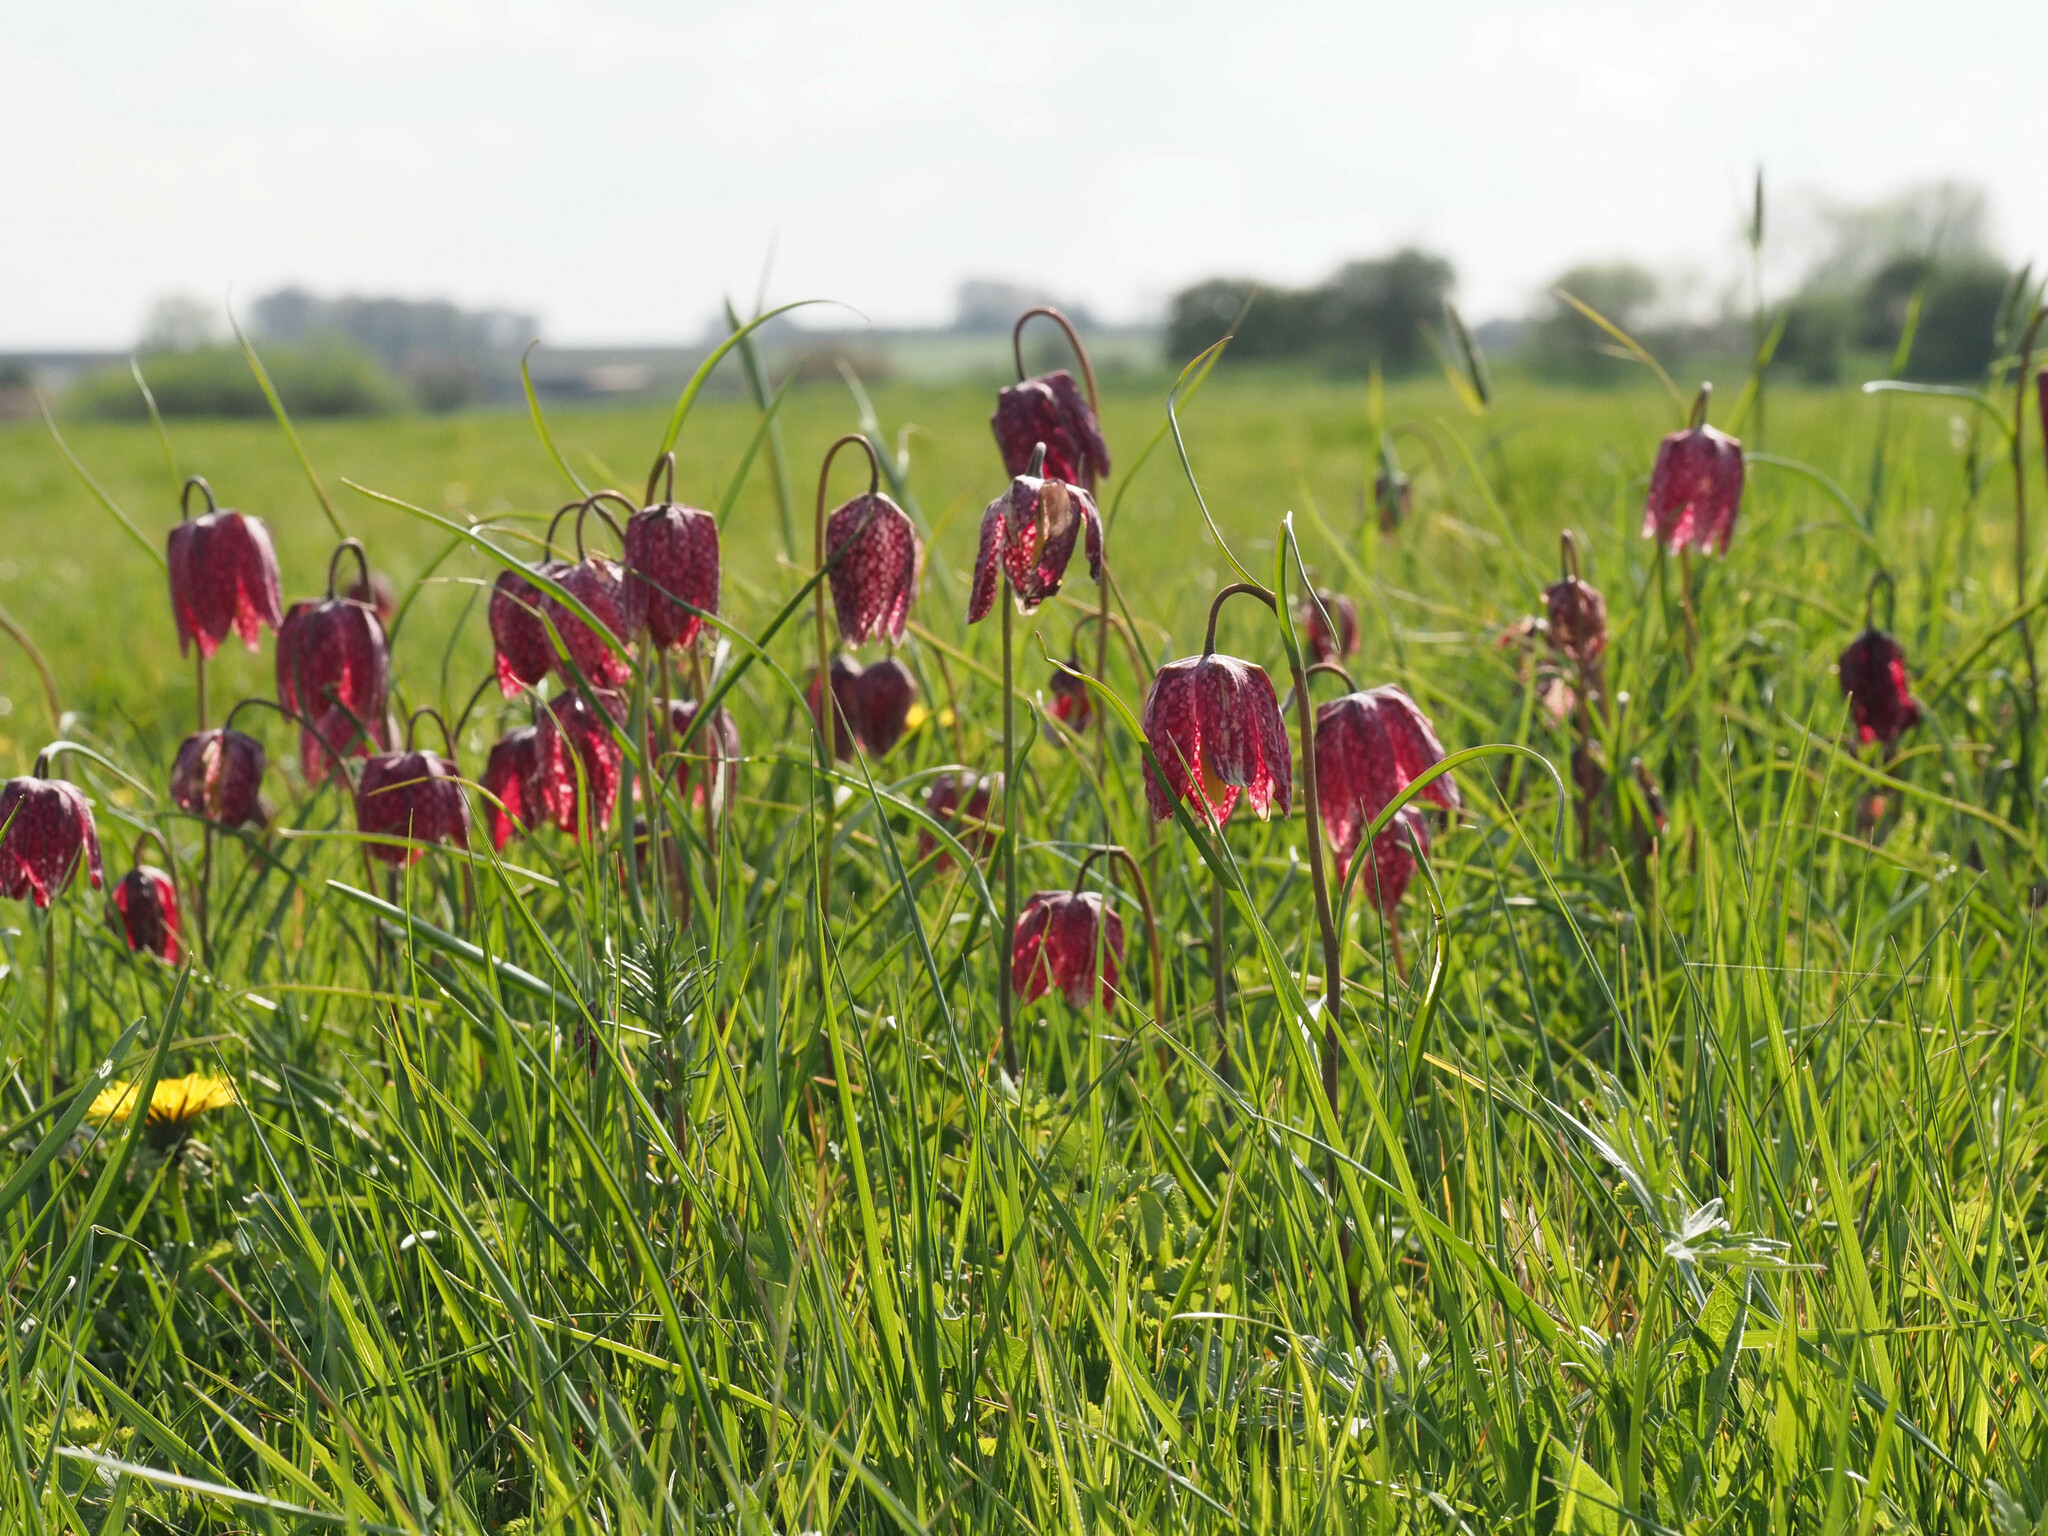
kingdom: Plantae
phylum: Tracheophyta
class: Liliopsida
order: Liliales
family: Liliaceae
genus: Fritillaria
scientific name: Fritillaria meleagris
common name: Fritillary
